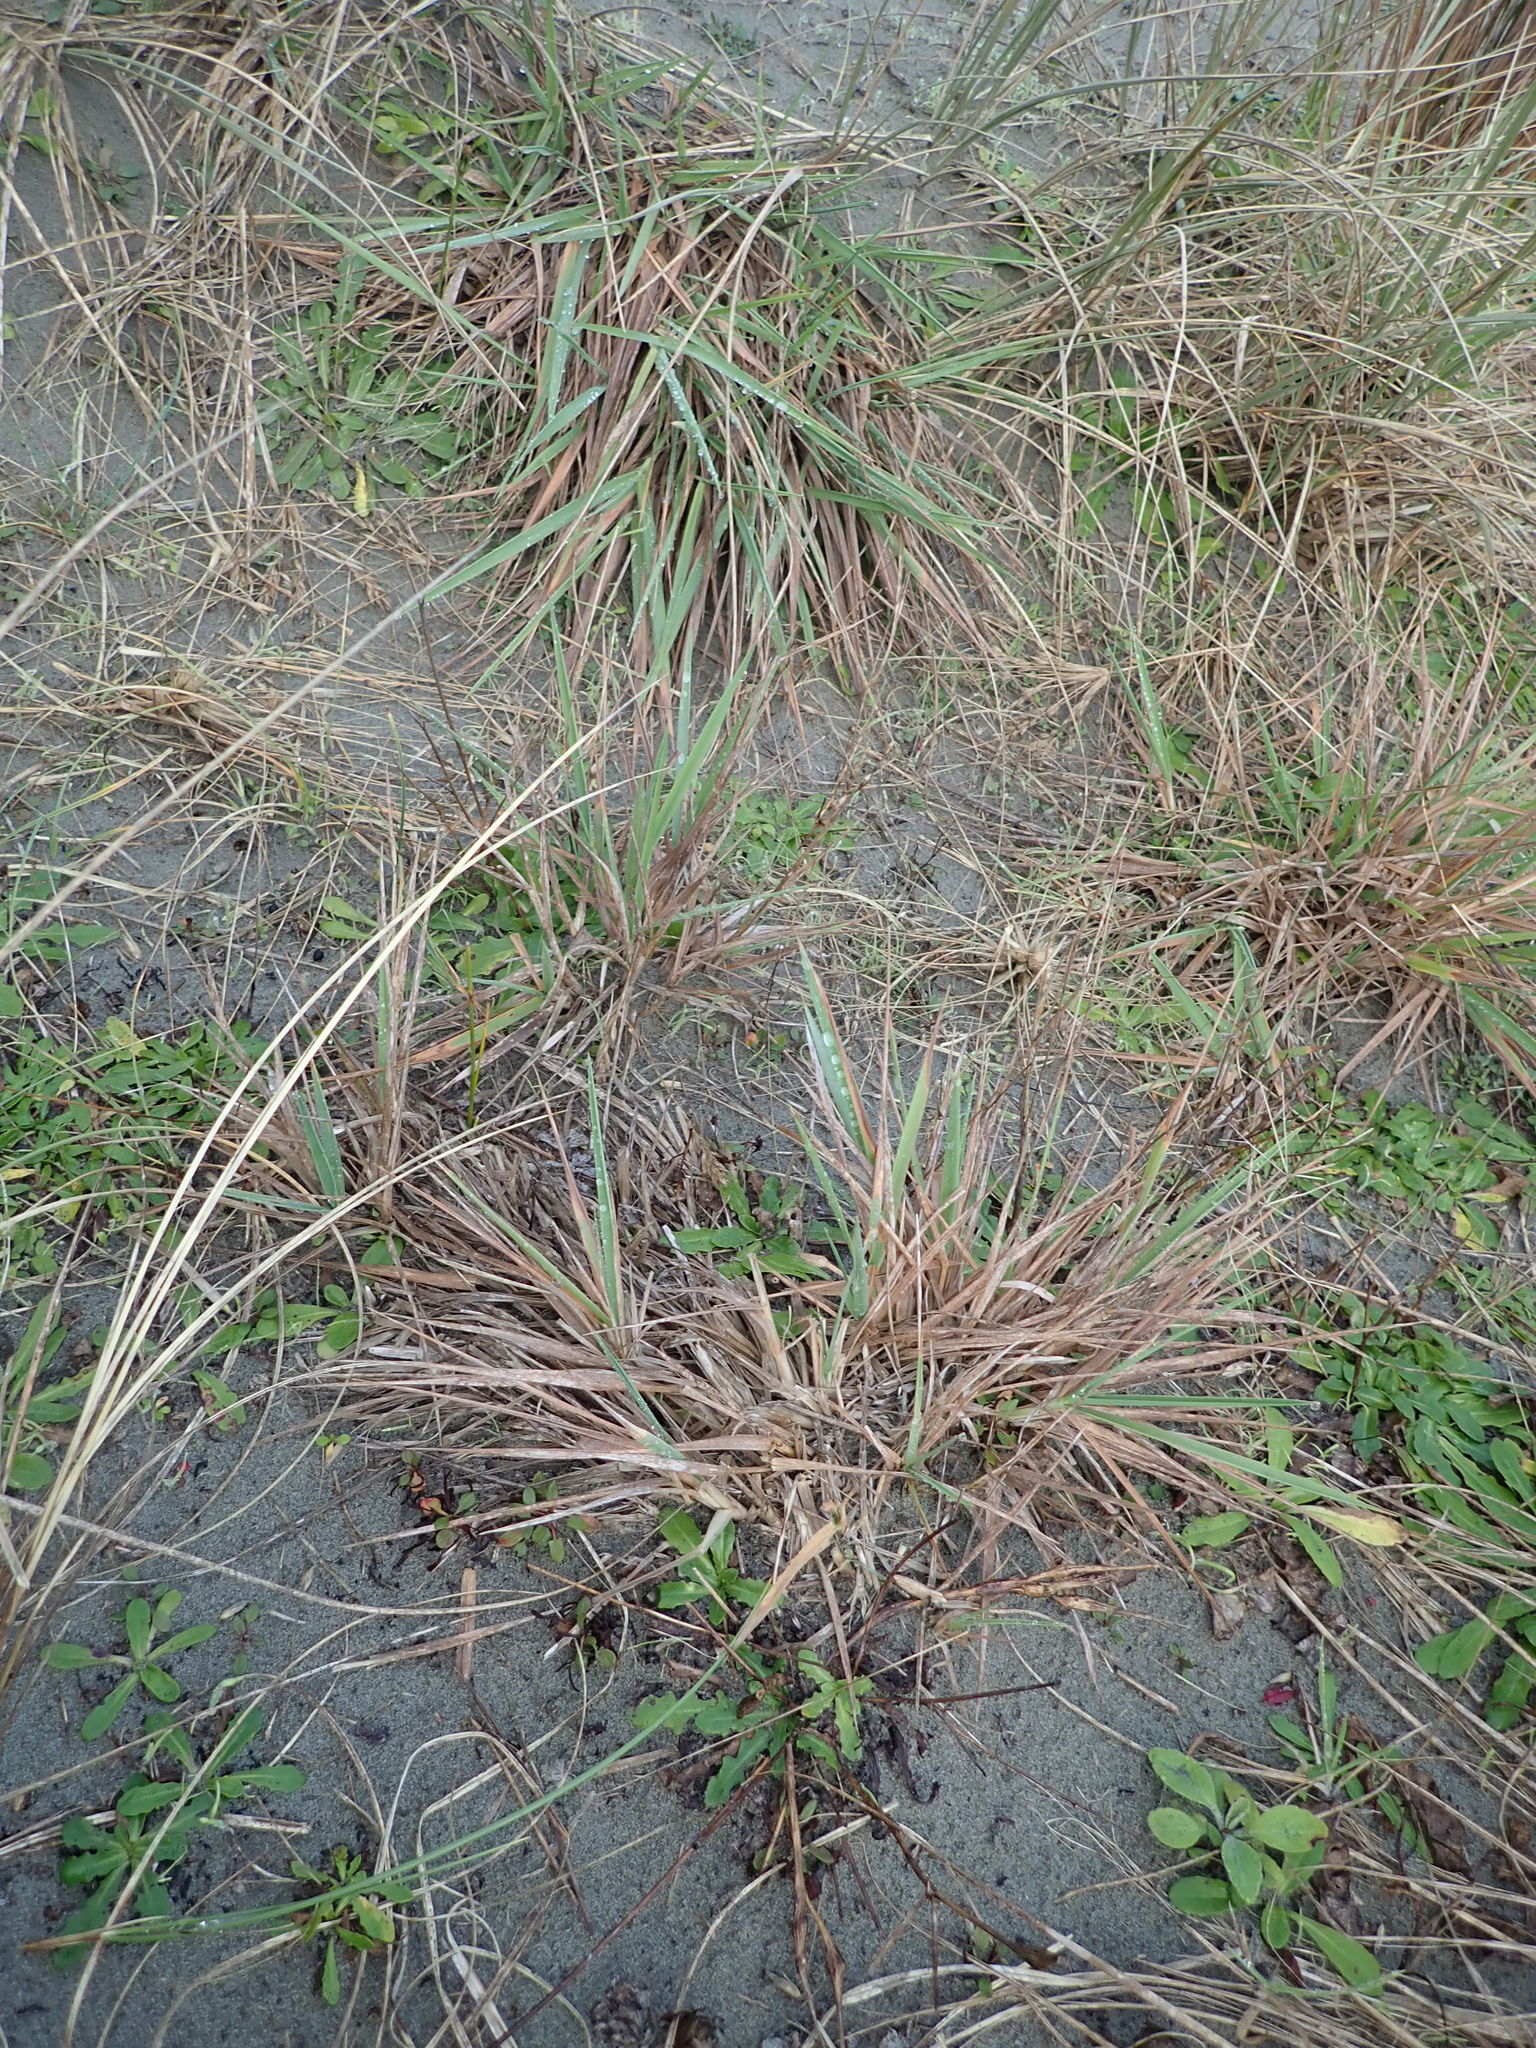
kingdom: Plantae
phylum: Tracheophyta
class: Liliopsida
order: Poales
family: Poaceae
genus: Lachnagrostis
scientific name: Lachnagrostis billardierei
